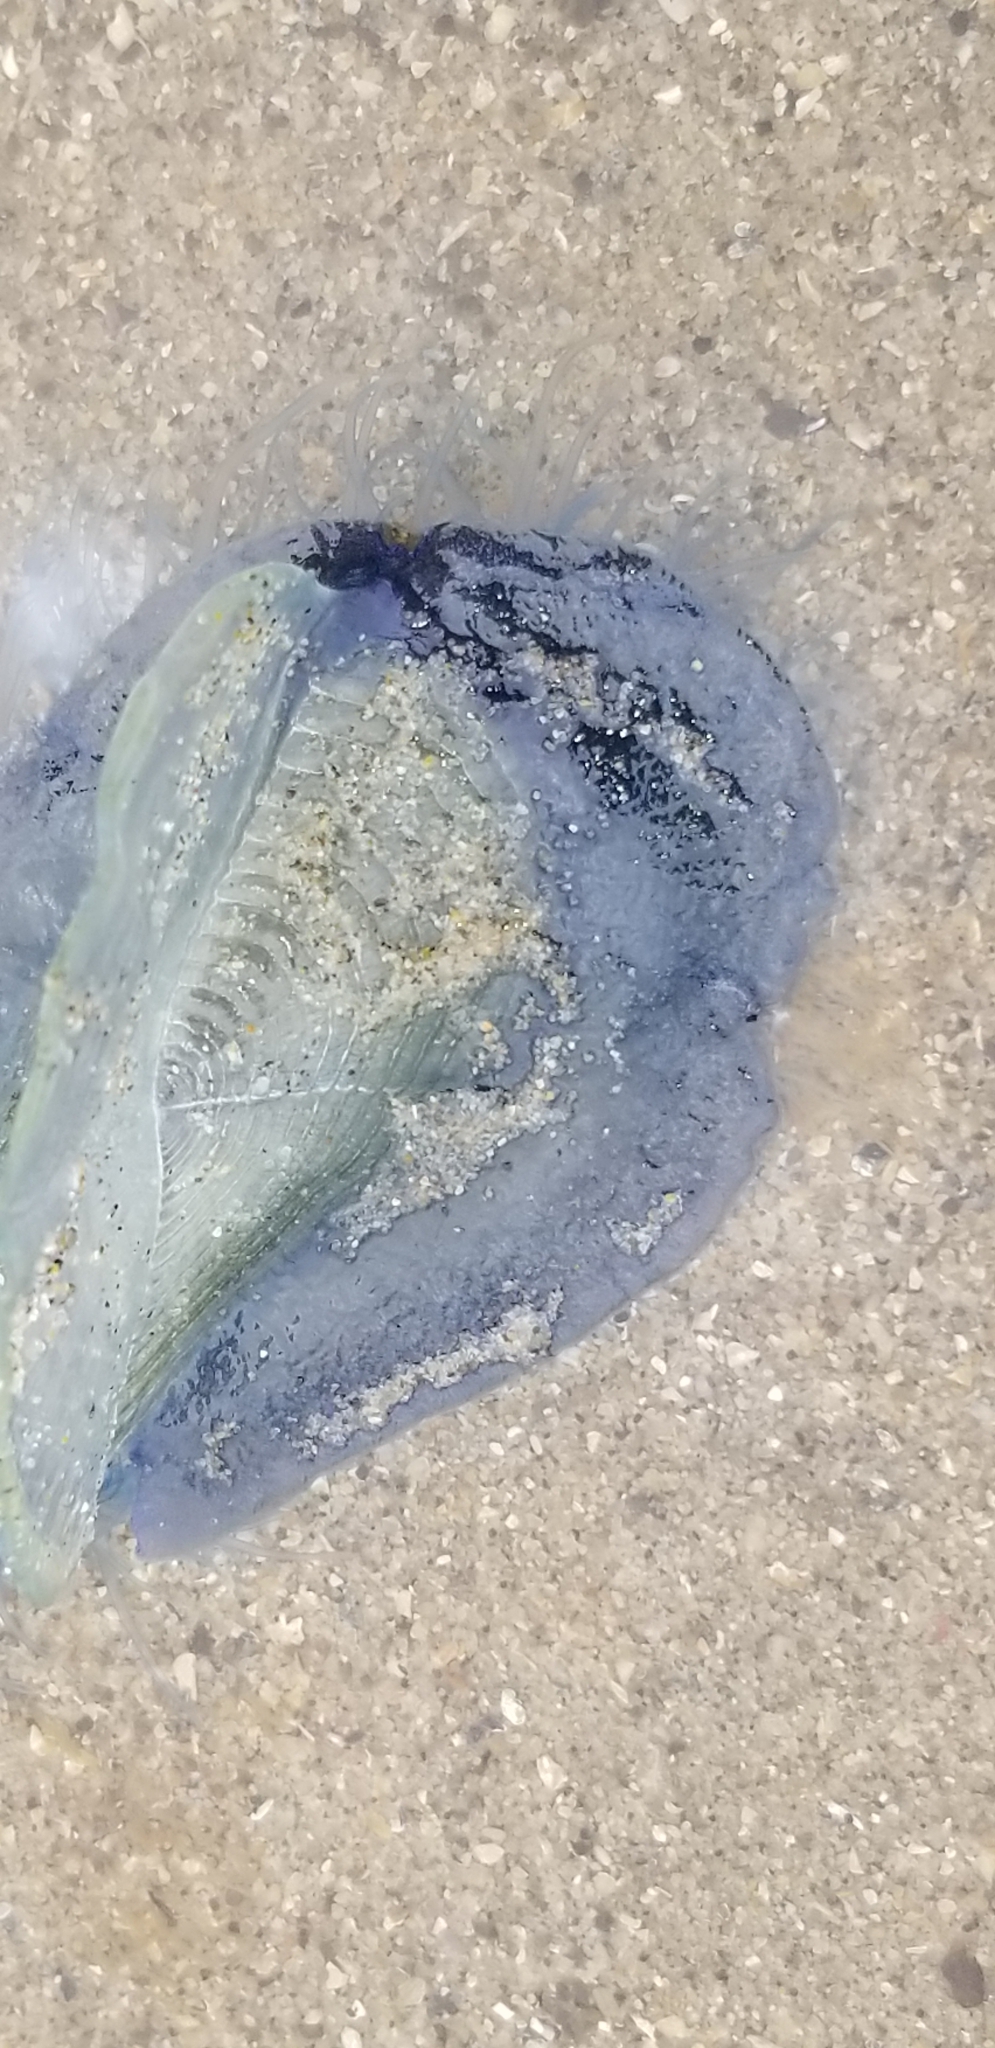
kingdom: Animalia
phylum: Cnidaria
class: Hydrozoa
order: Anthoathecata
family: Porpitidae
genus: Velella
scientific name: Velella velella
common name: By-the-wind-sailor
